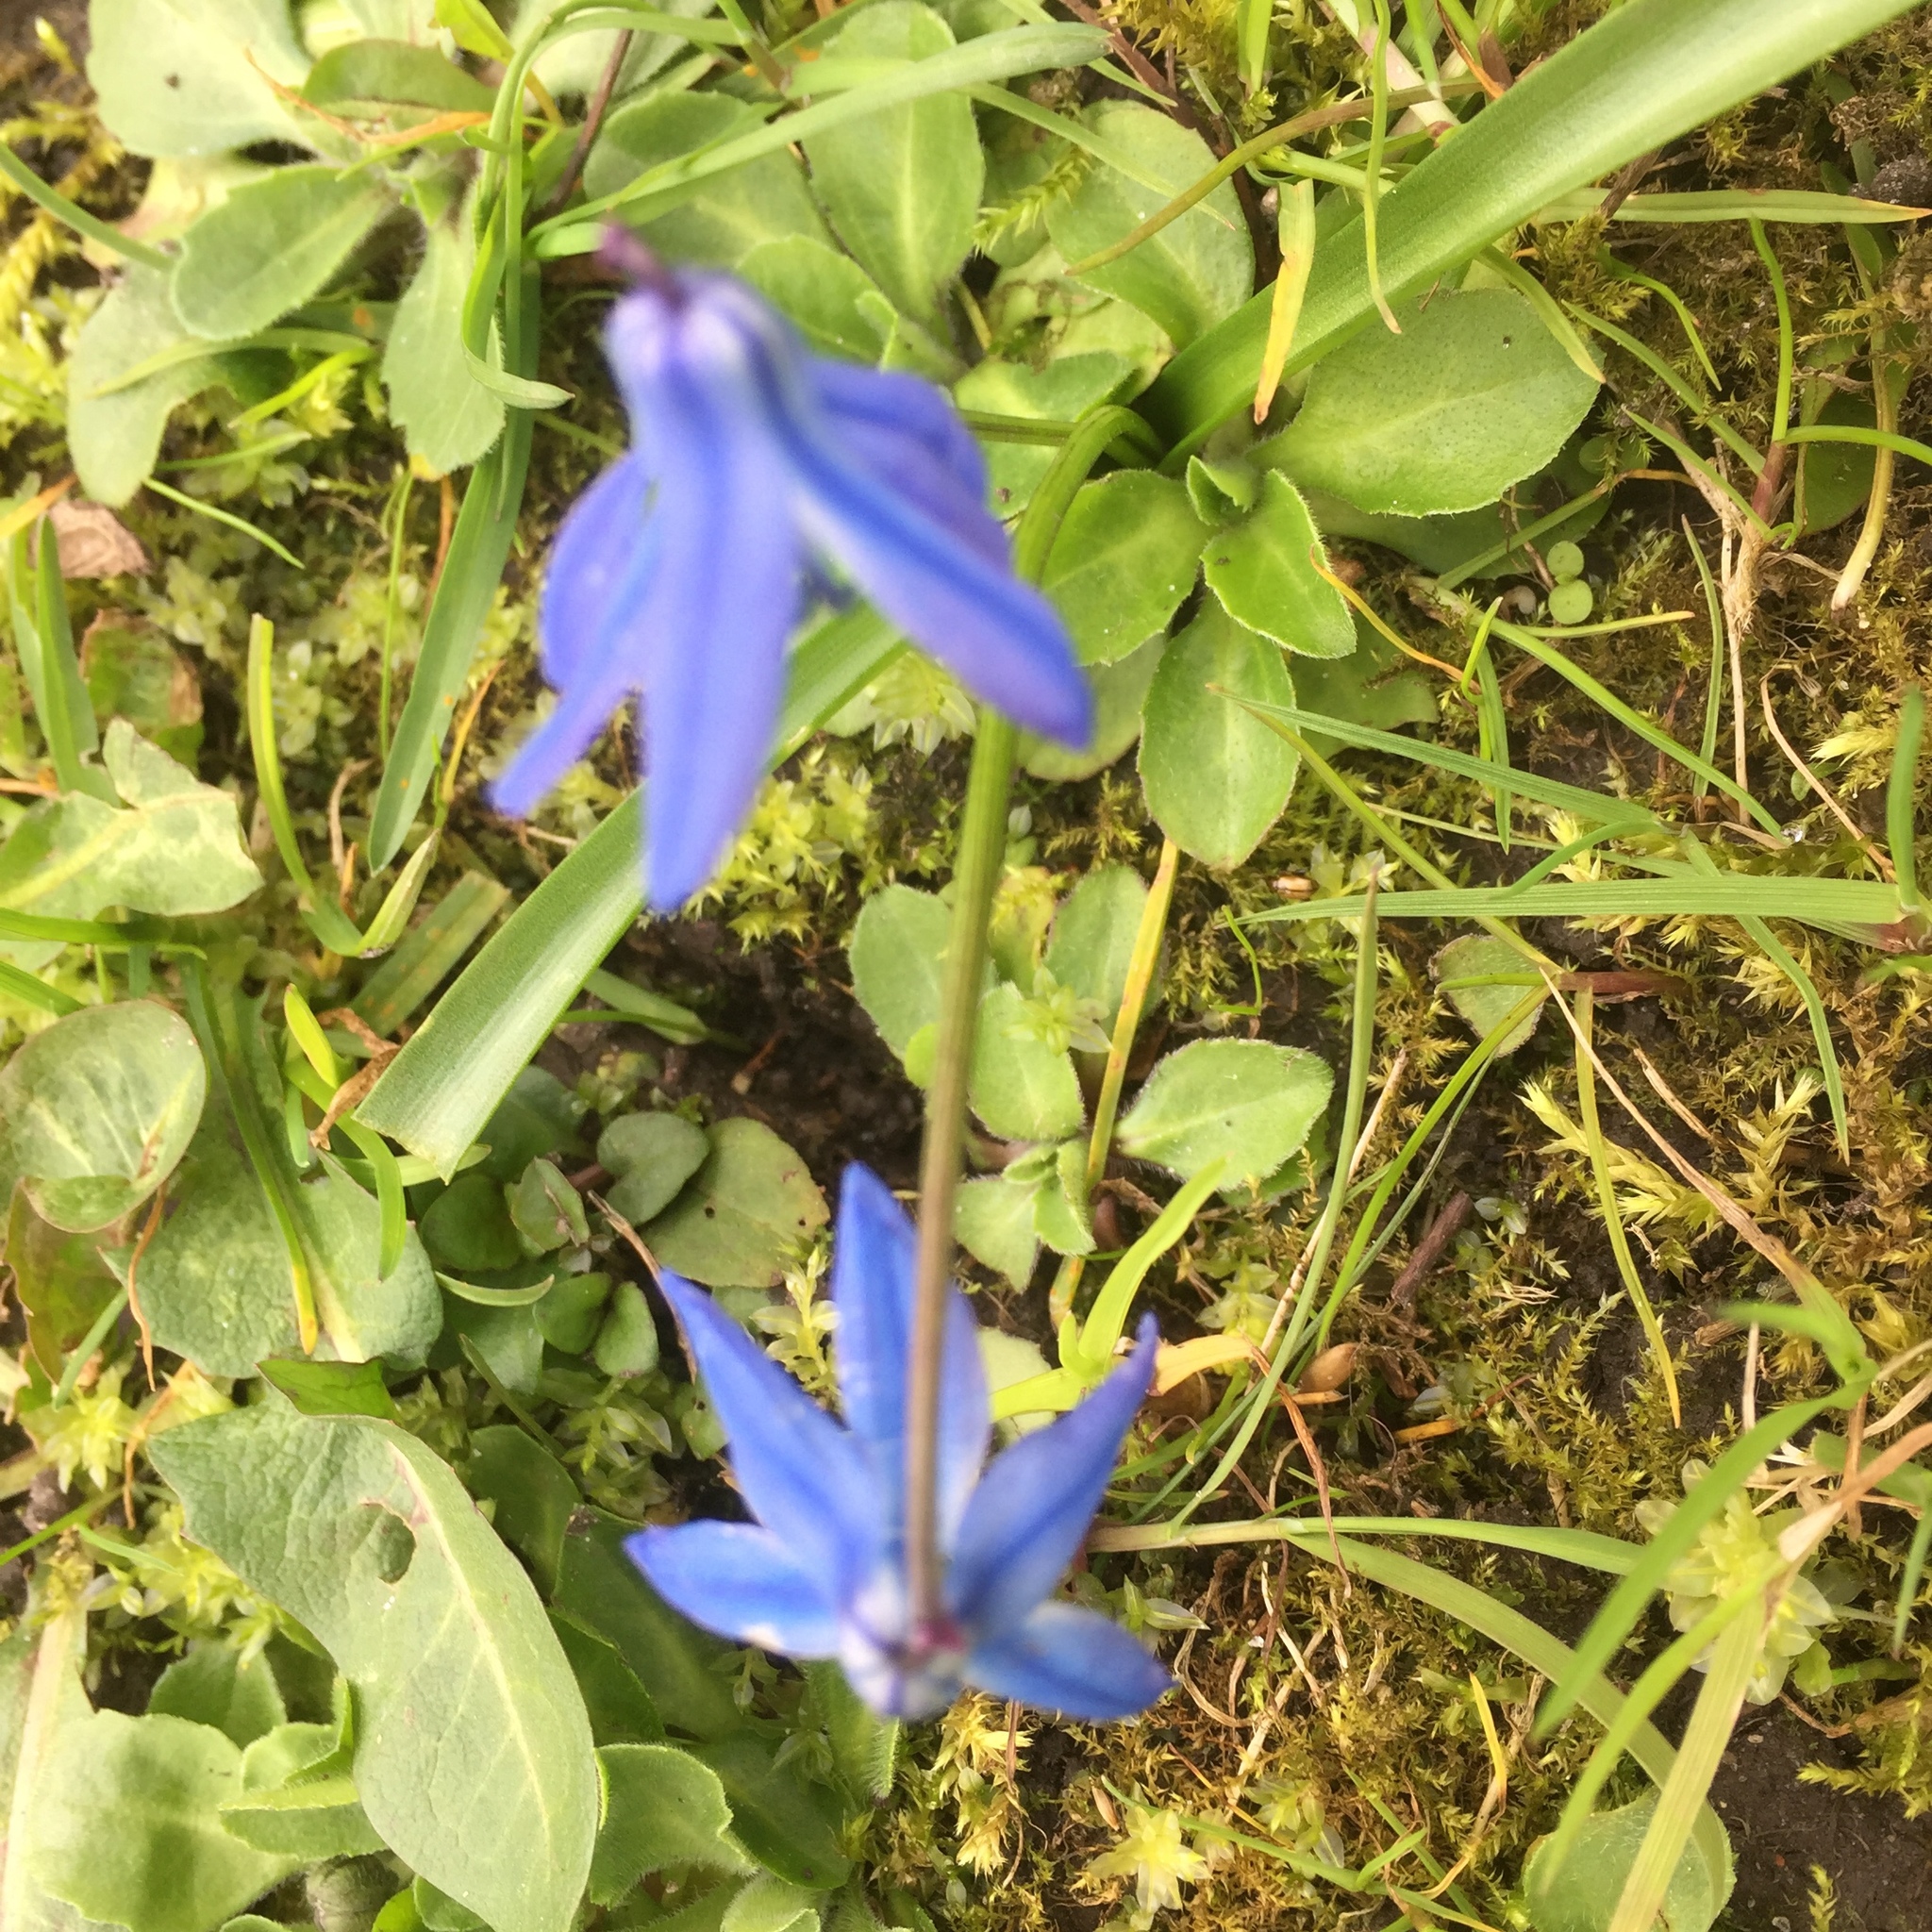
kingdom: Plantae
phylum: Tracheophyta
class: Liliopsida
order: Asparagales
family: Asparagaceae
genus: Scilla
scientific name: Scilla siberica
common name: Siberian squill
